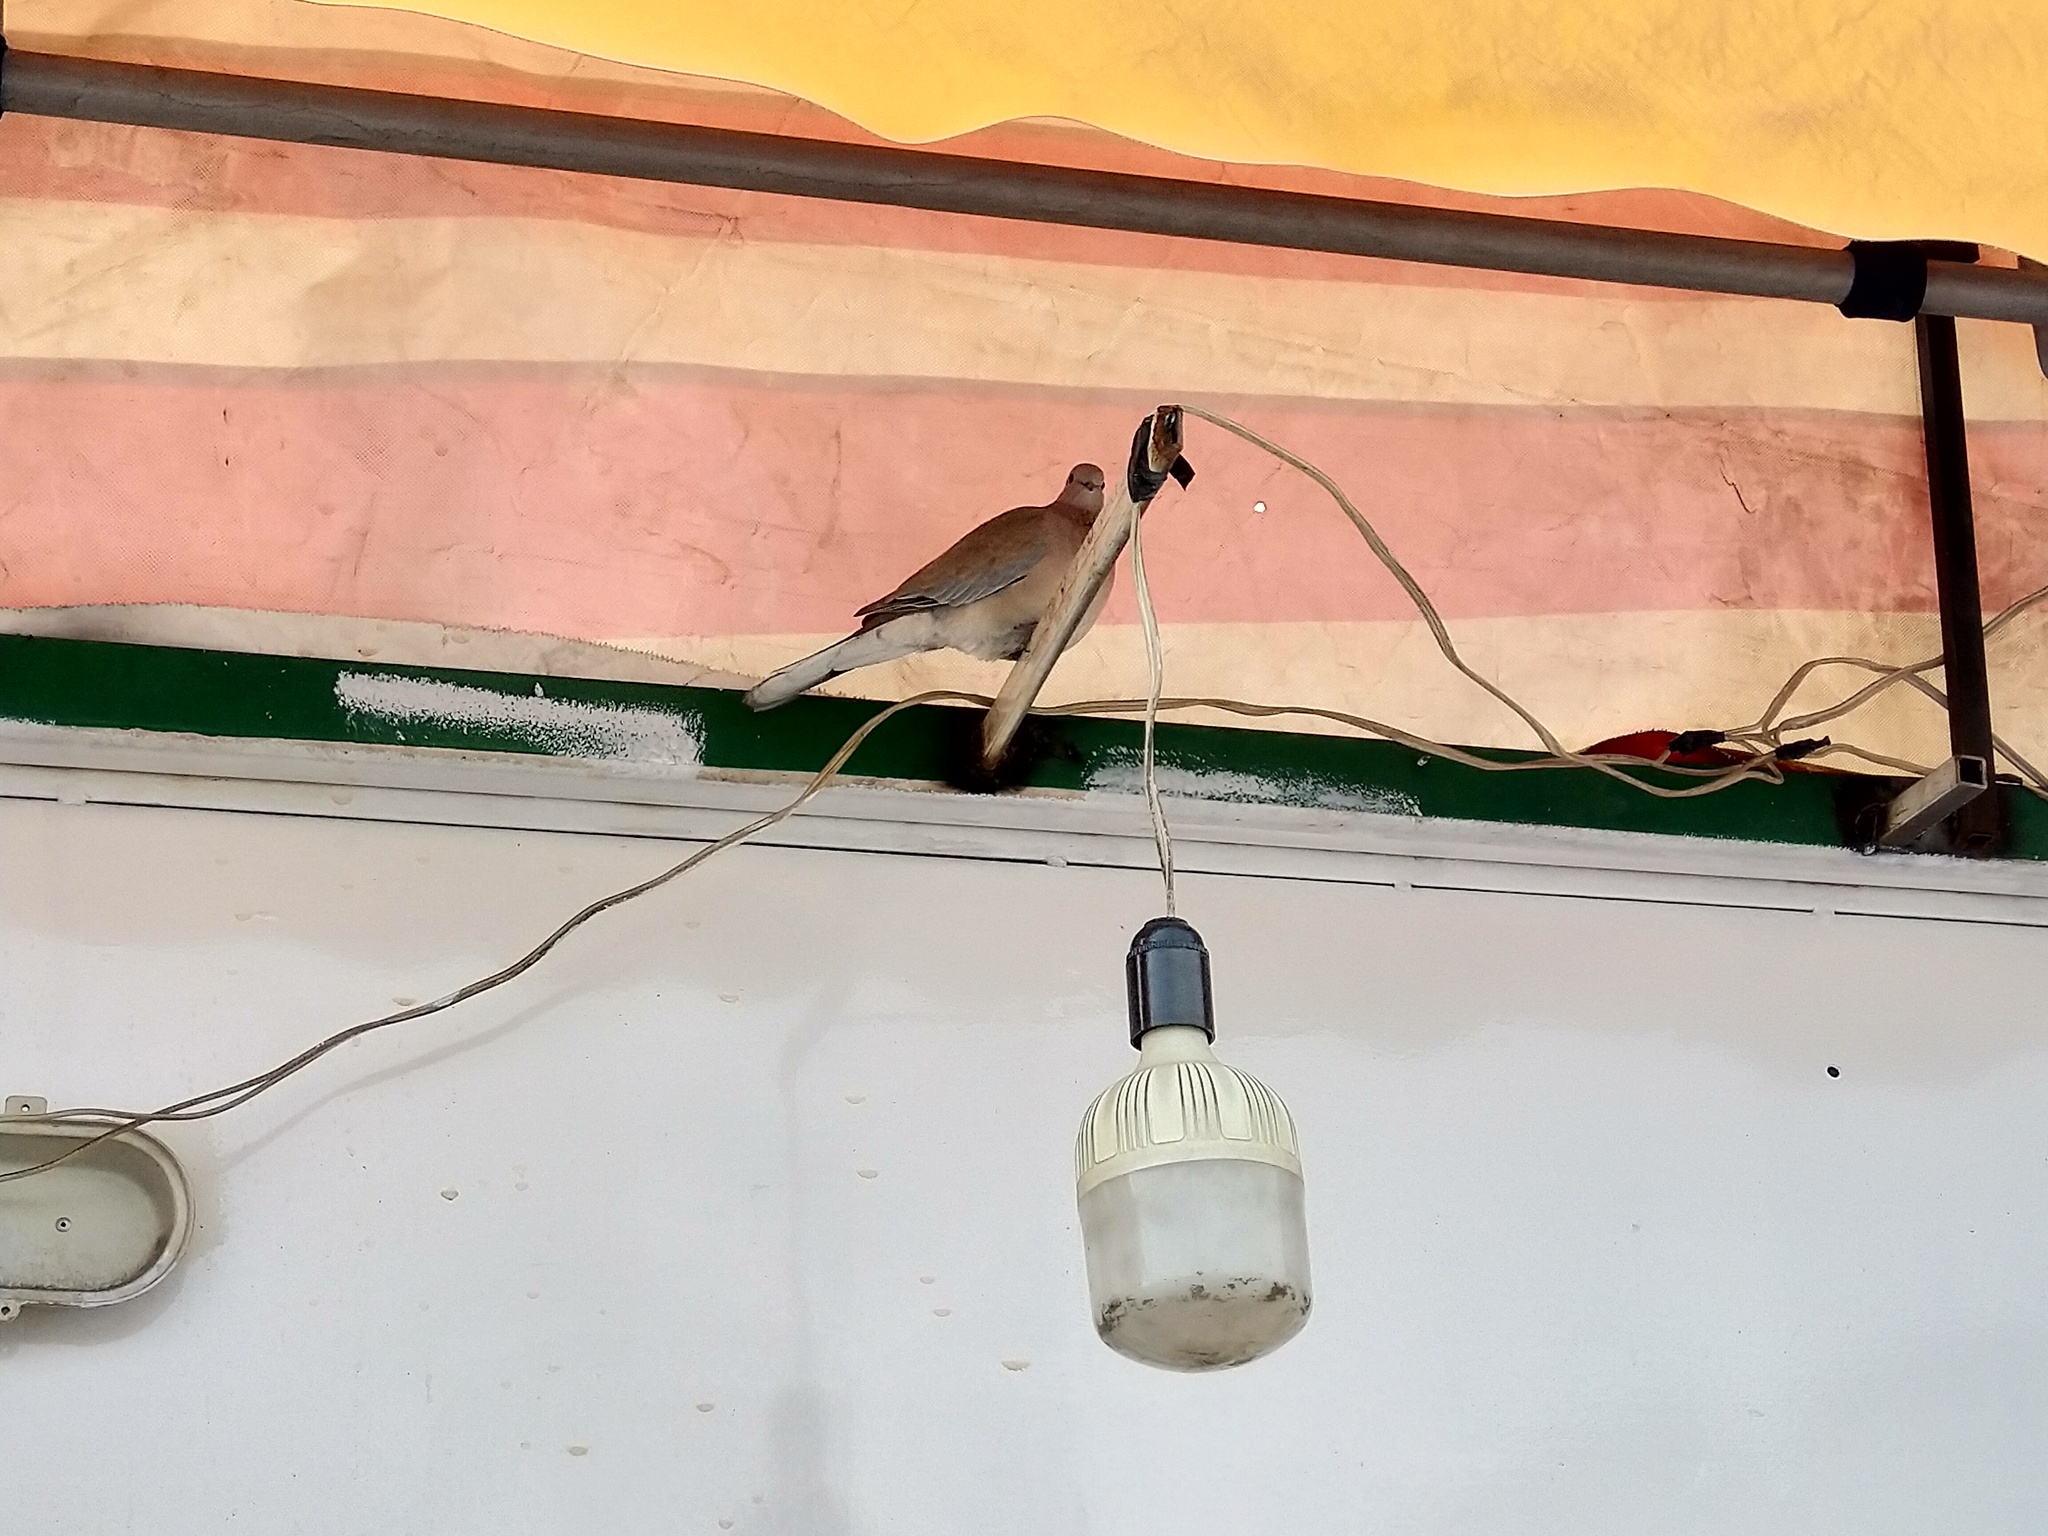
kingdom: Animalia
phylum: Chordata
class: Aves
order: Columbiformes
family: Columbidae
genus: Spilopelia
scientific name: Spilopelia senegalensis
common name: Laughing dove
